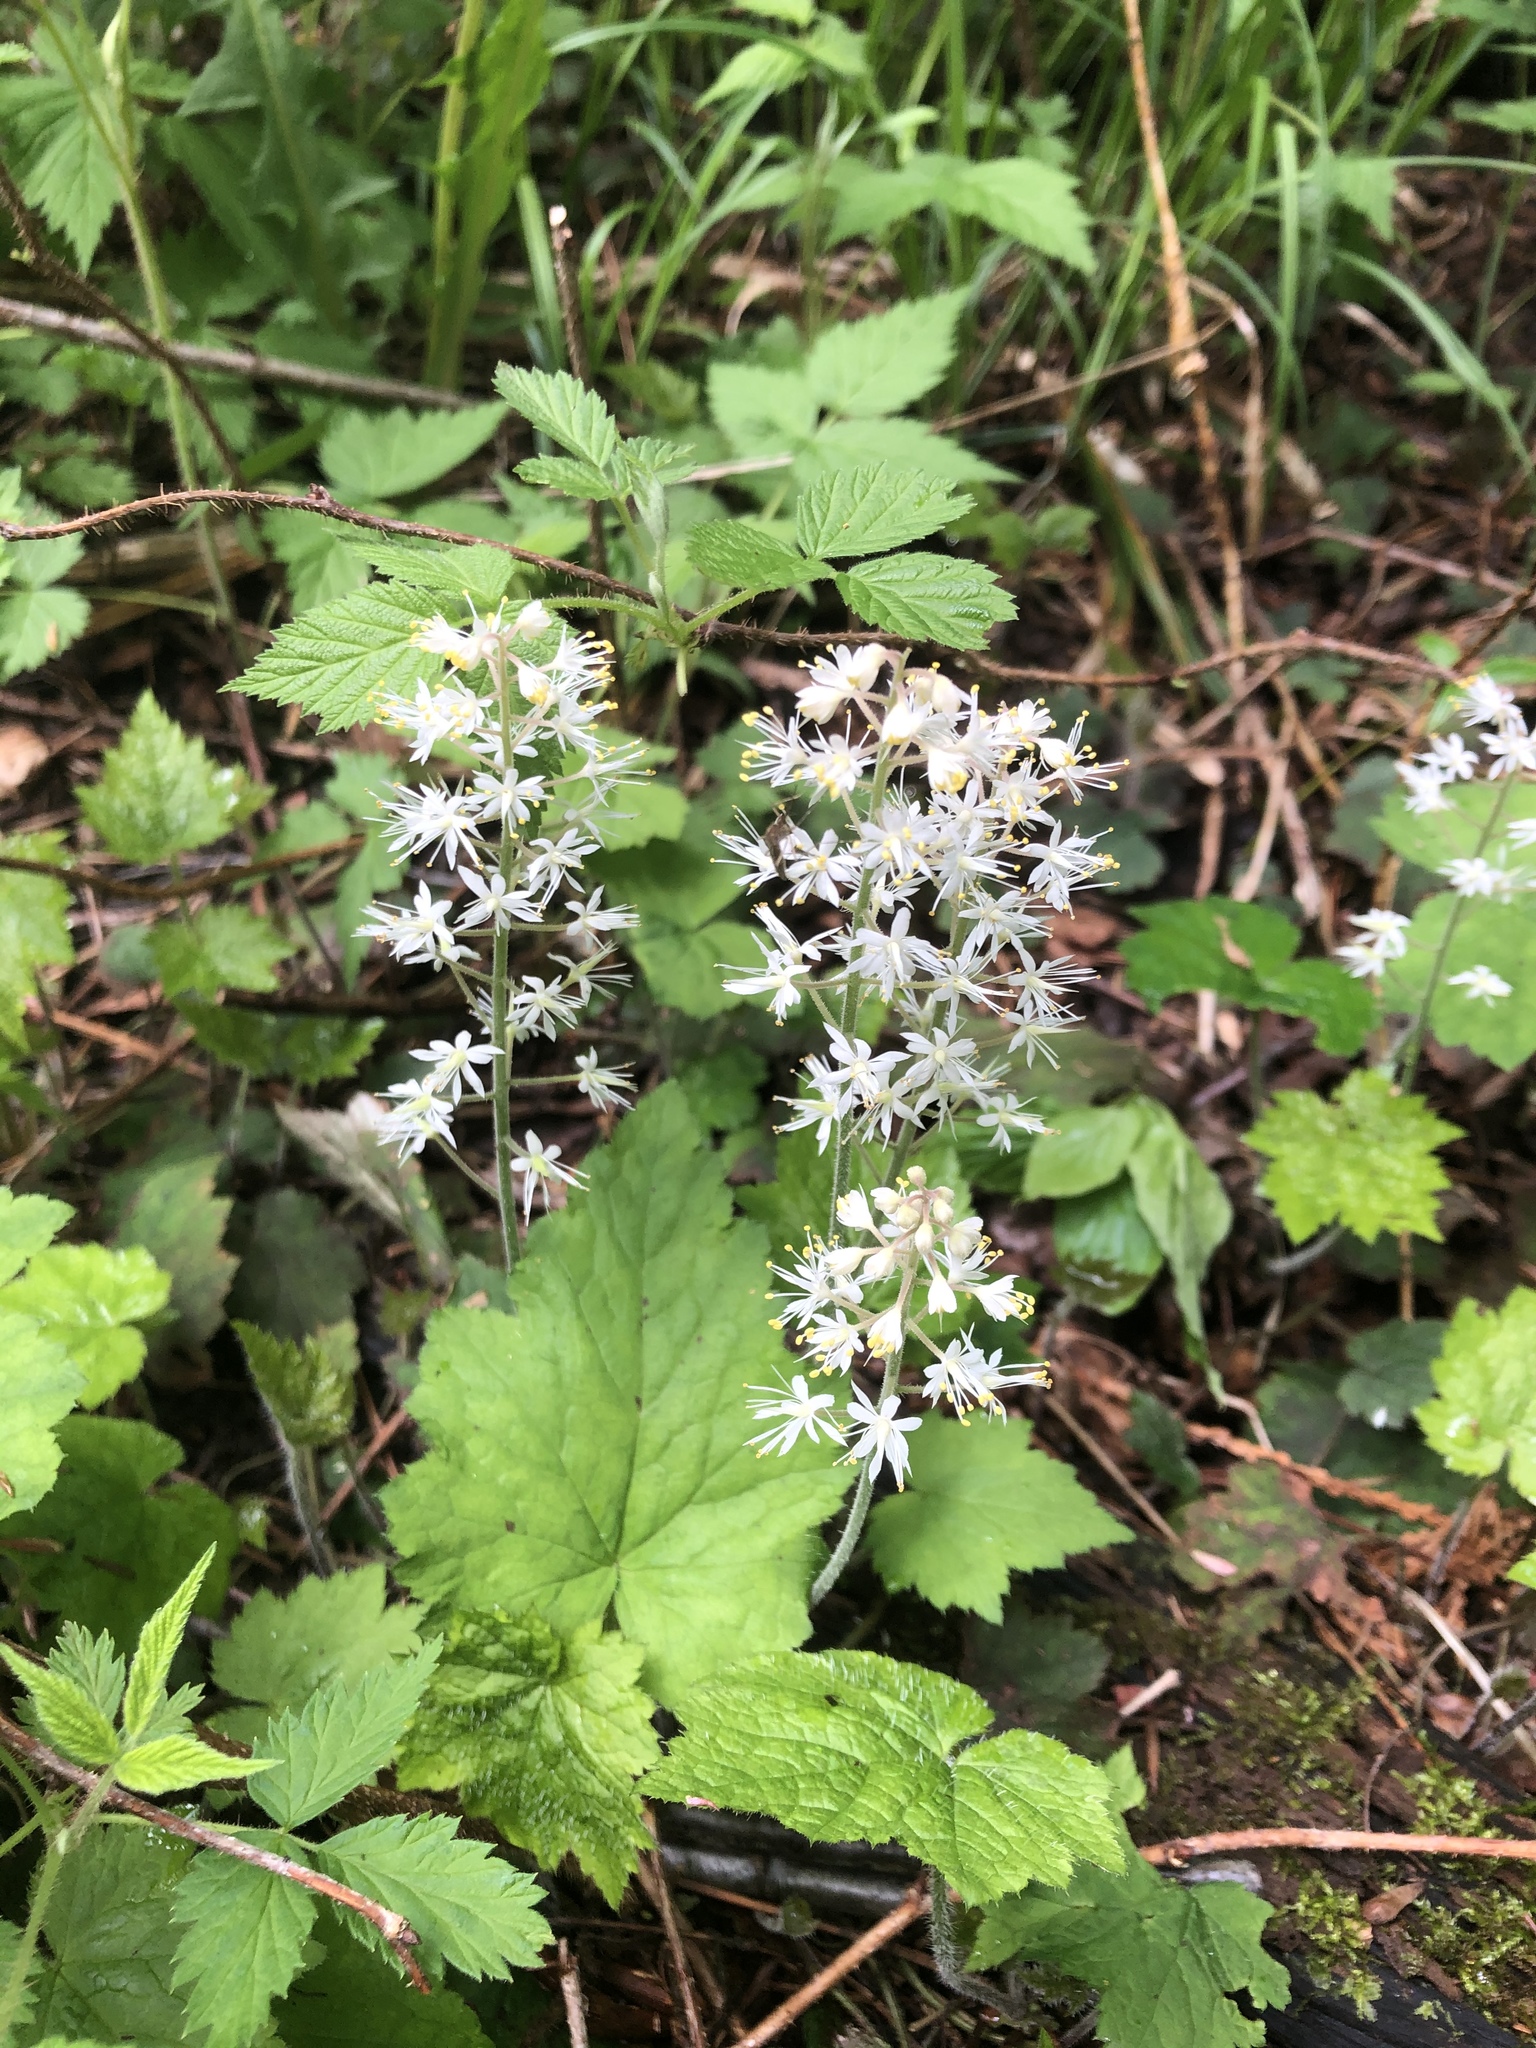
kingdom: Plantae
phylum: Tracheophyta
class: Magnoliopsida
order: Saxifragales
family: Saxifragaceae
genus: Tiarella
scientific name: Tiarella stolonifera
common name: Stoloniferous foamflower
